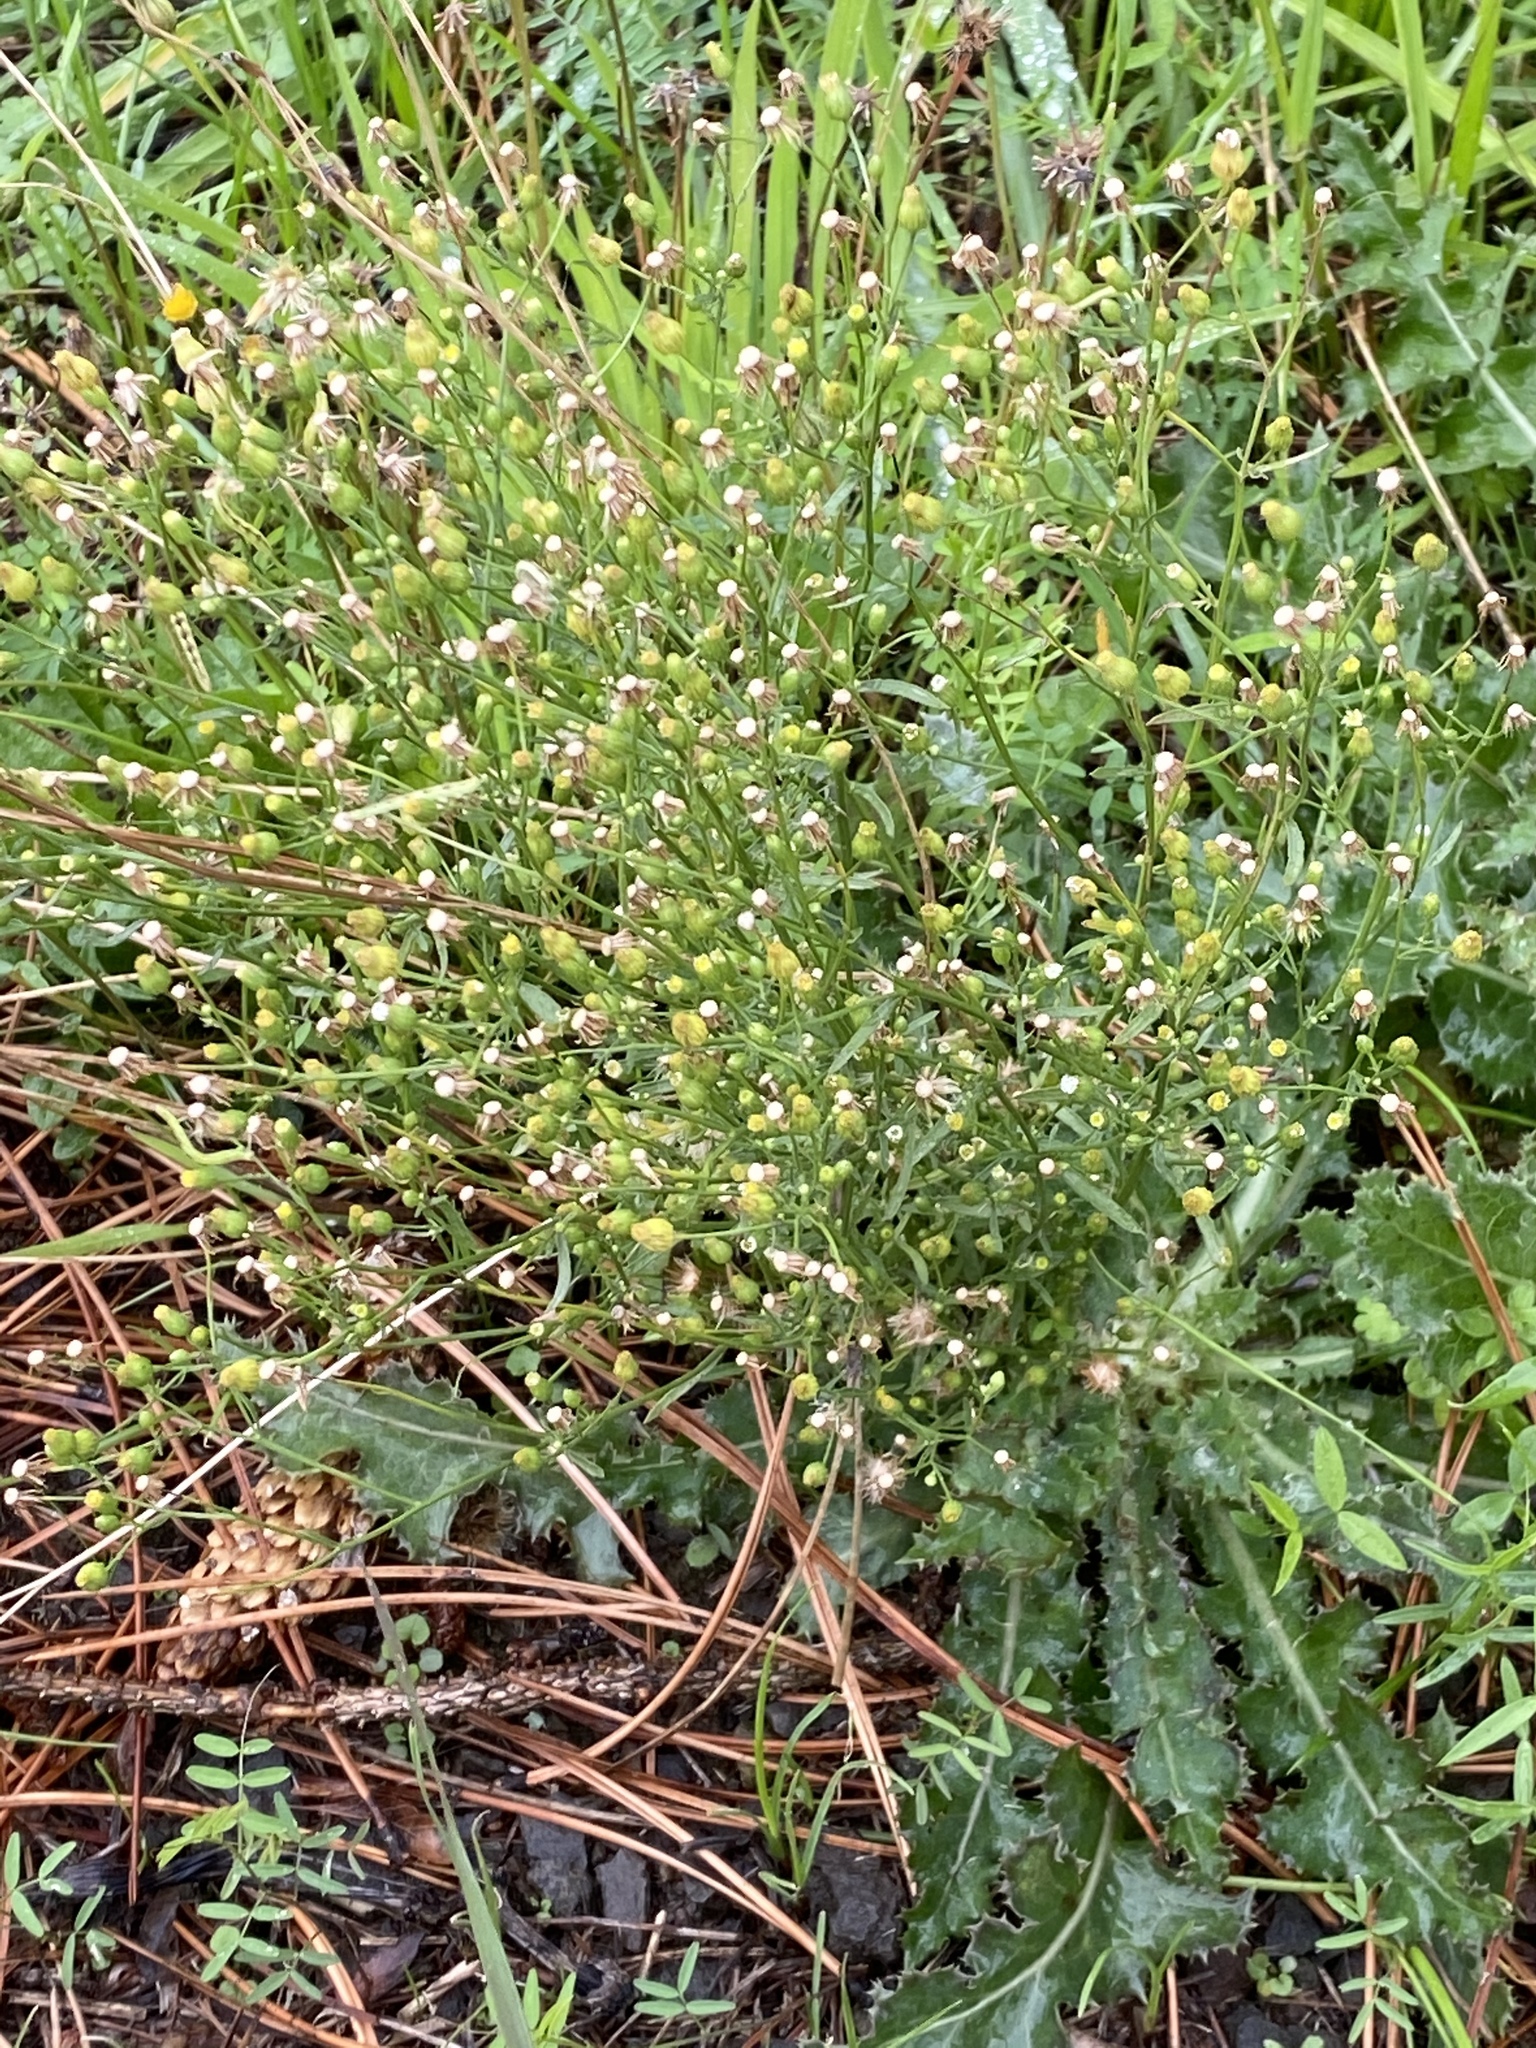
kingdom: Plantae
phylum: Tracheophyta
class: Magnoliopsida
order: Asterales
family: Asteraceae
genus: Erigeron
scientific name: Erigeron canadensis
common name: Canadian fleabane
